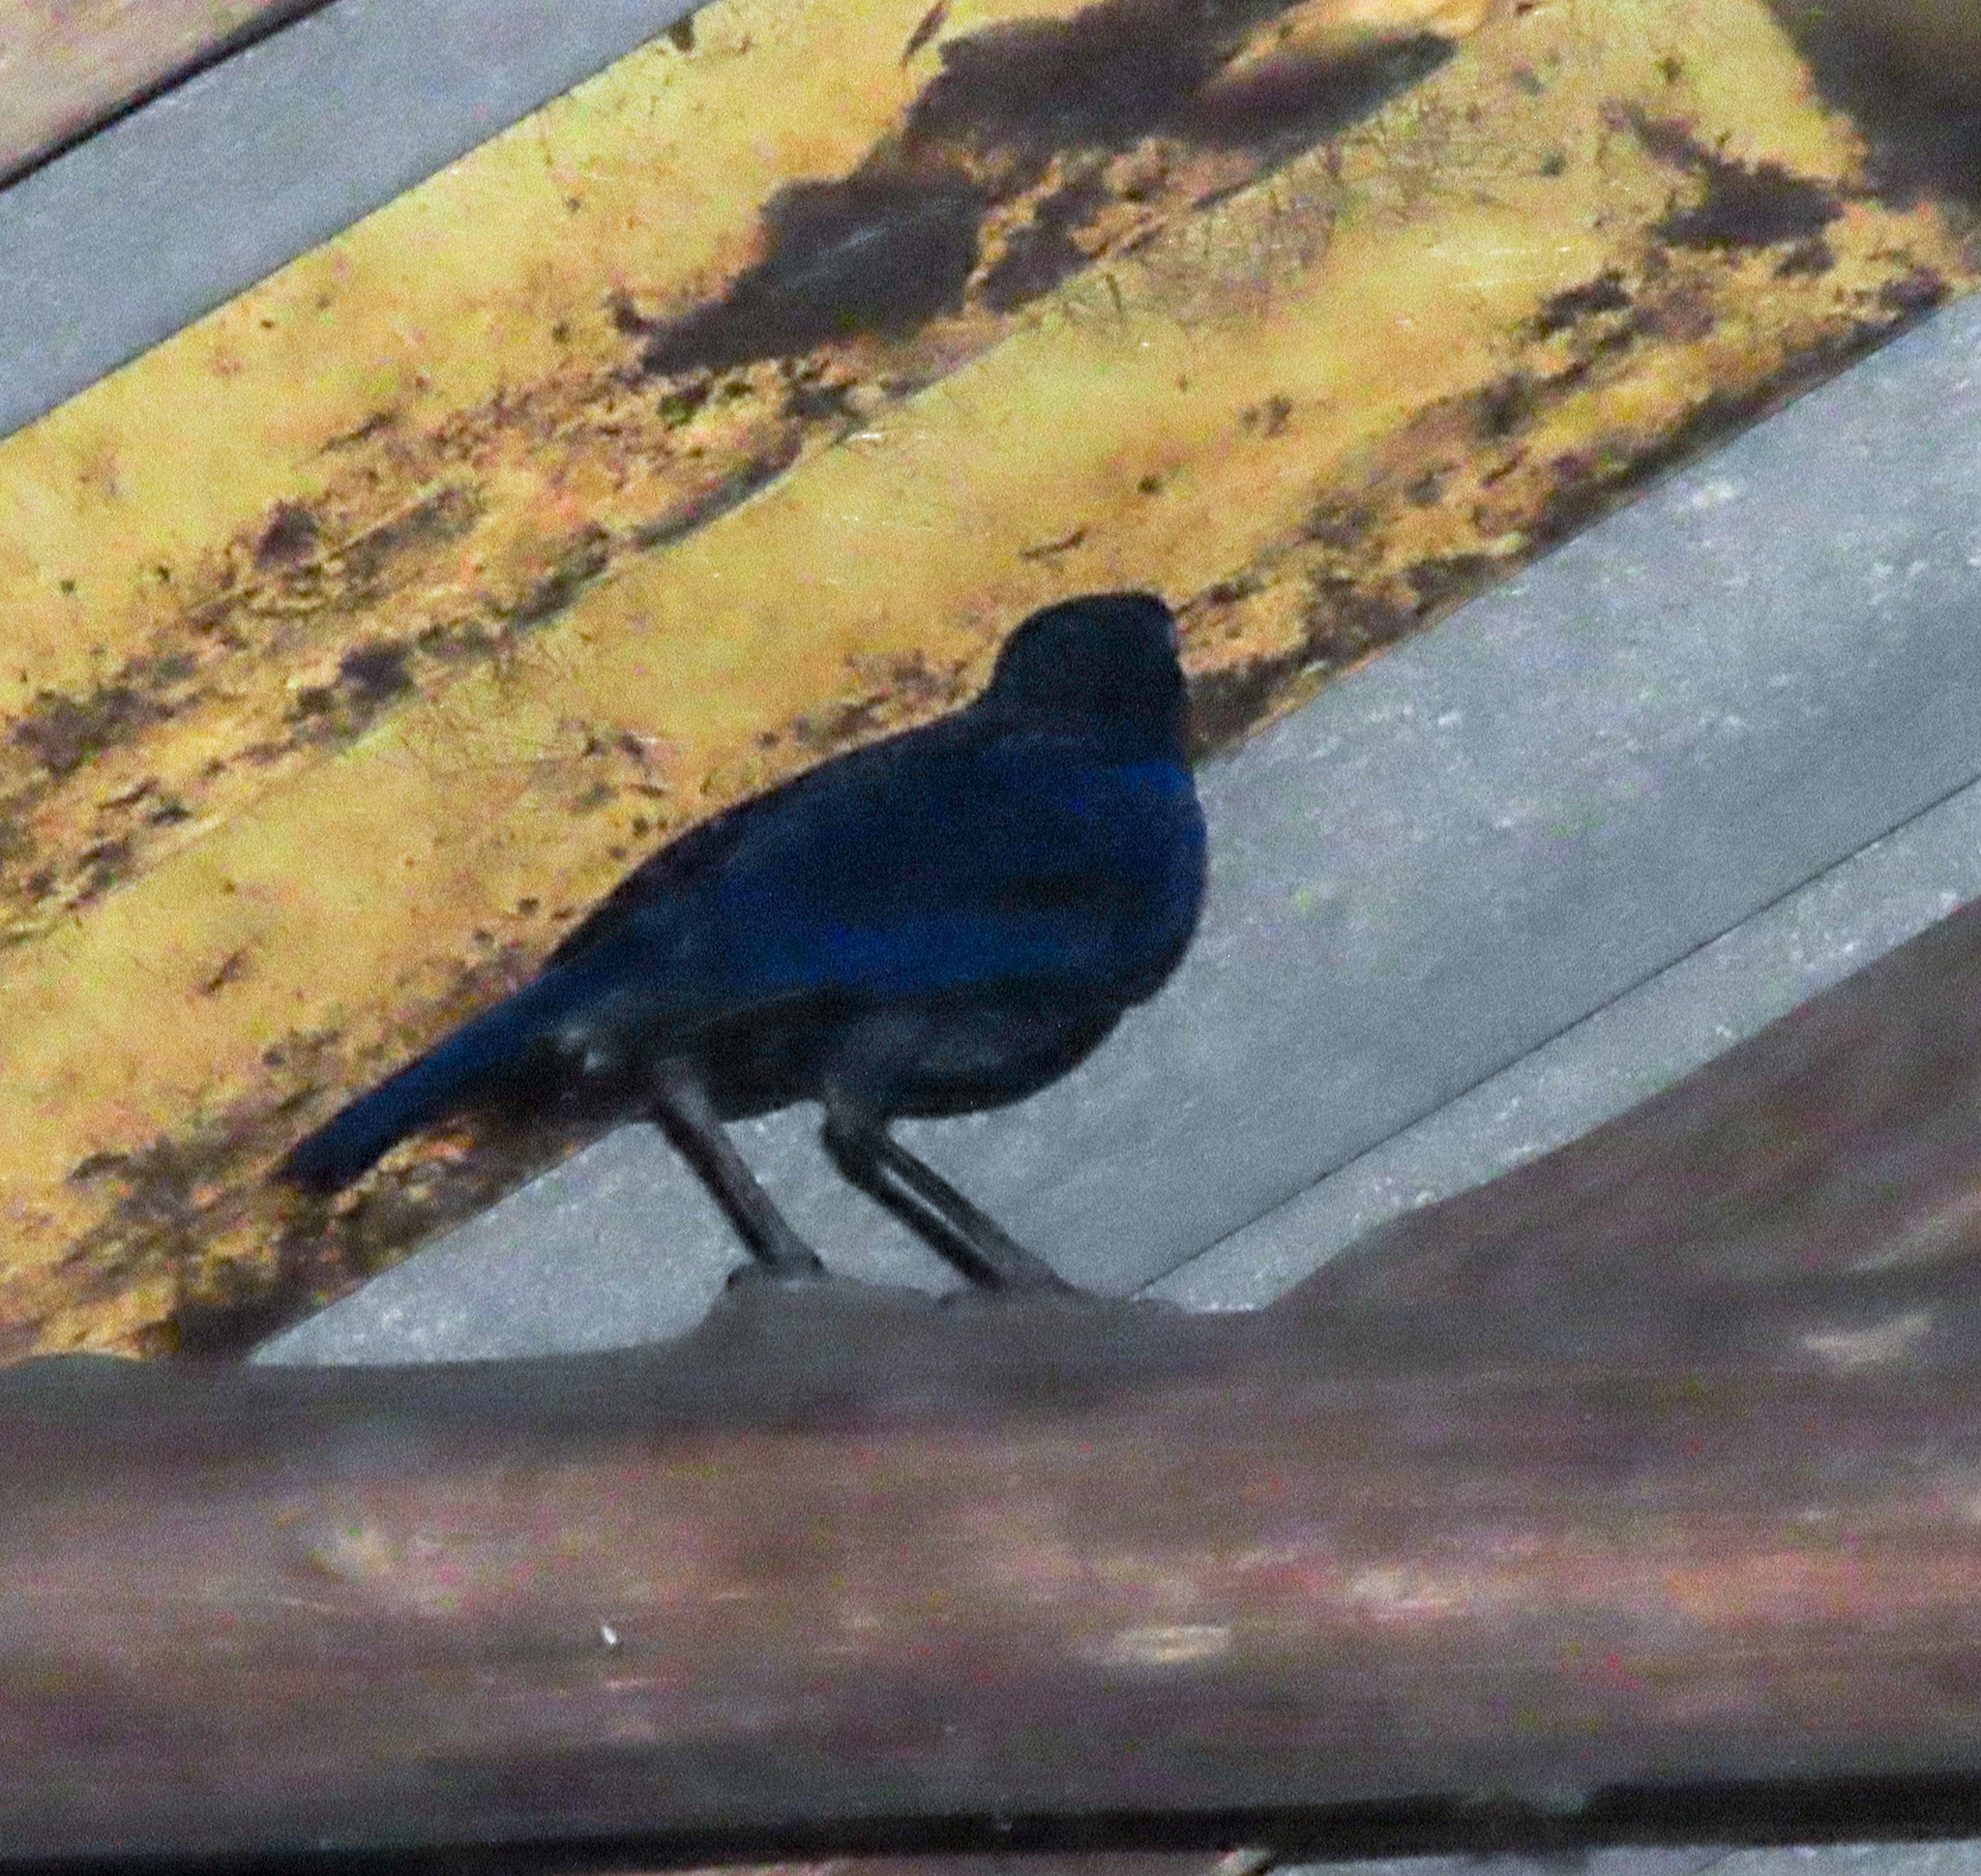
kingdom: Animalia
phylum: Chordata
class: Aves
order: Passeriformes
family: Muscicapidae
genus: Myophonus
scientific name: Myophonus caeruleus
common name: Blue whistling-thrush
